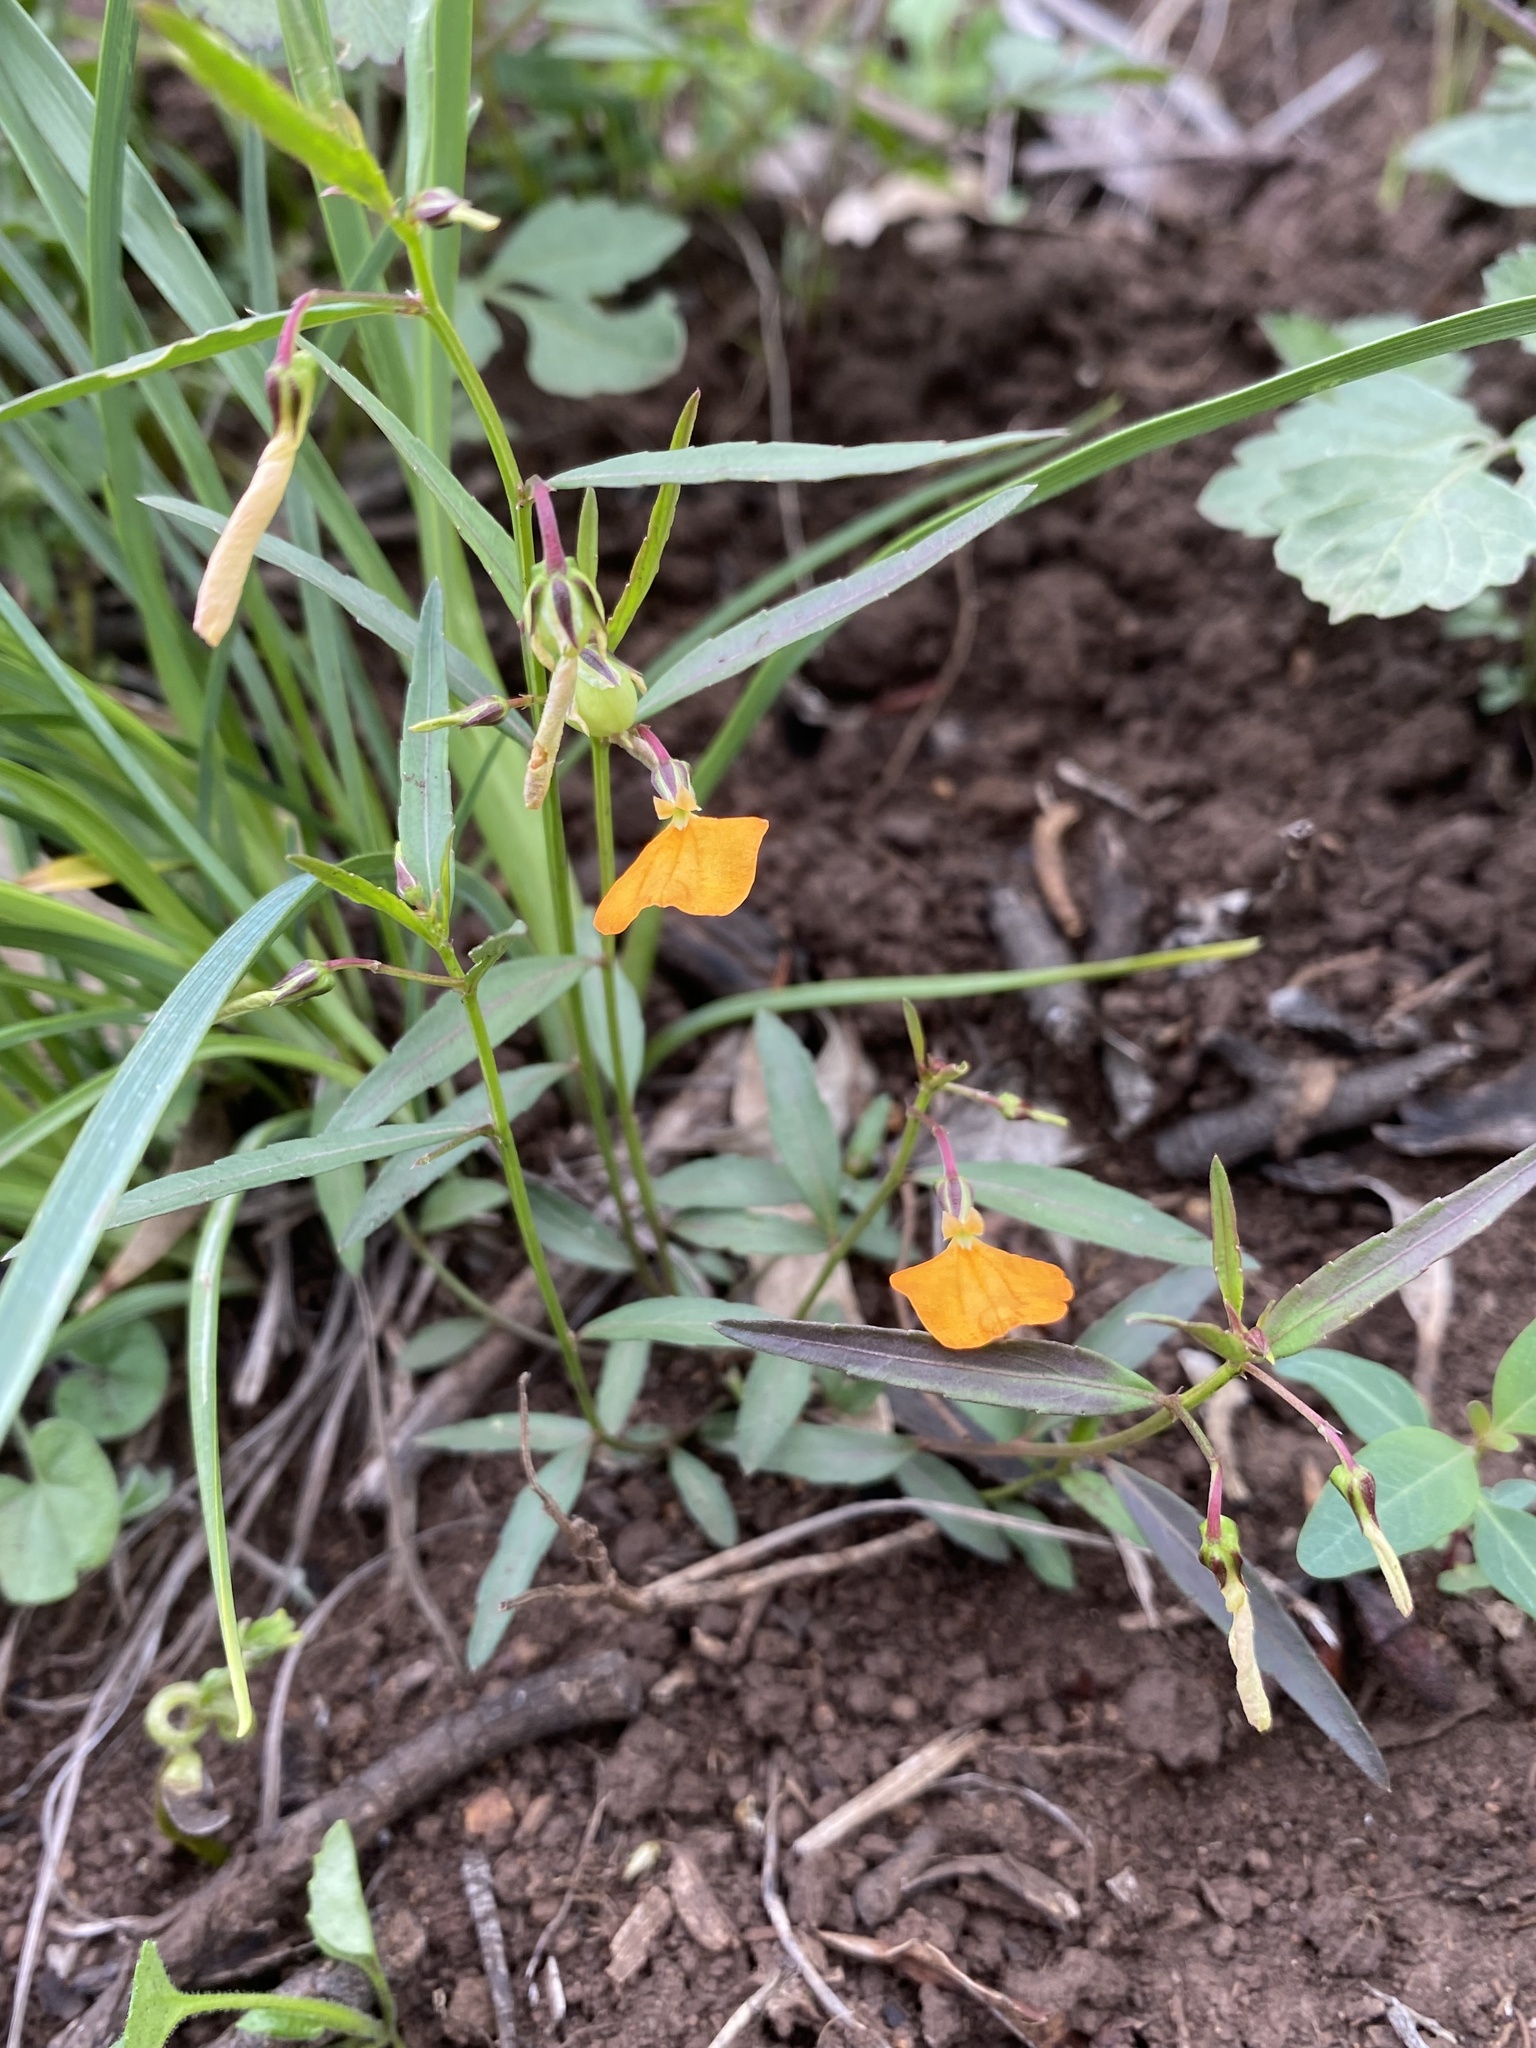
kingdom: Plantae
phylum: Tracheophyta
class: Magnoliopsida
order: Malpighiales
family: Violaceae
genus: Pigea
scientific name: Pigea stellarioides
